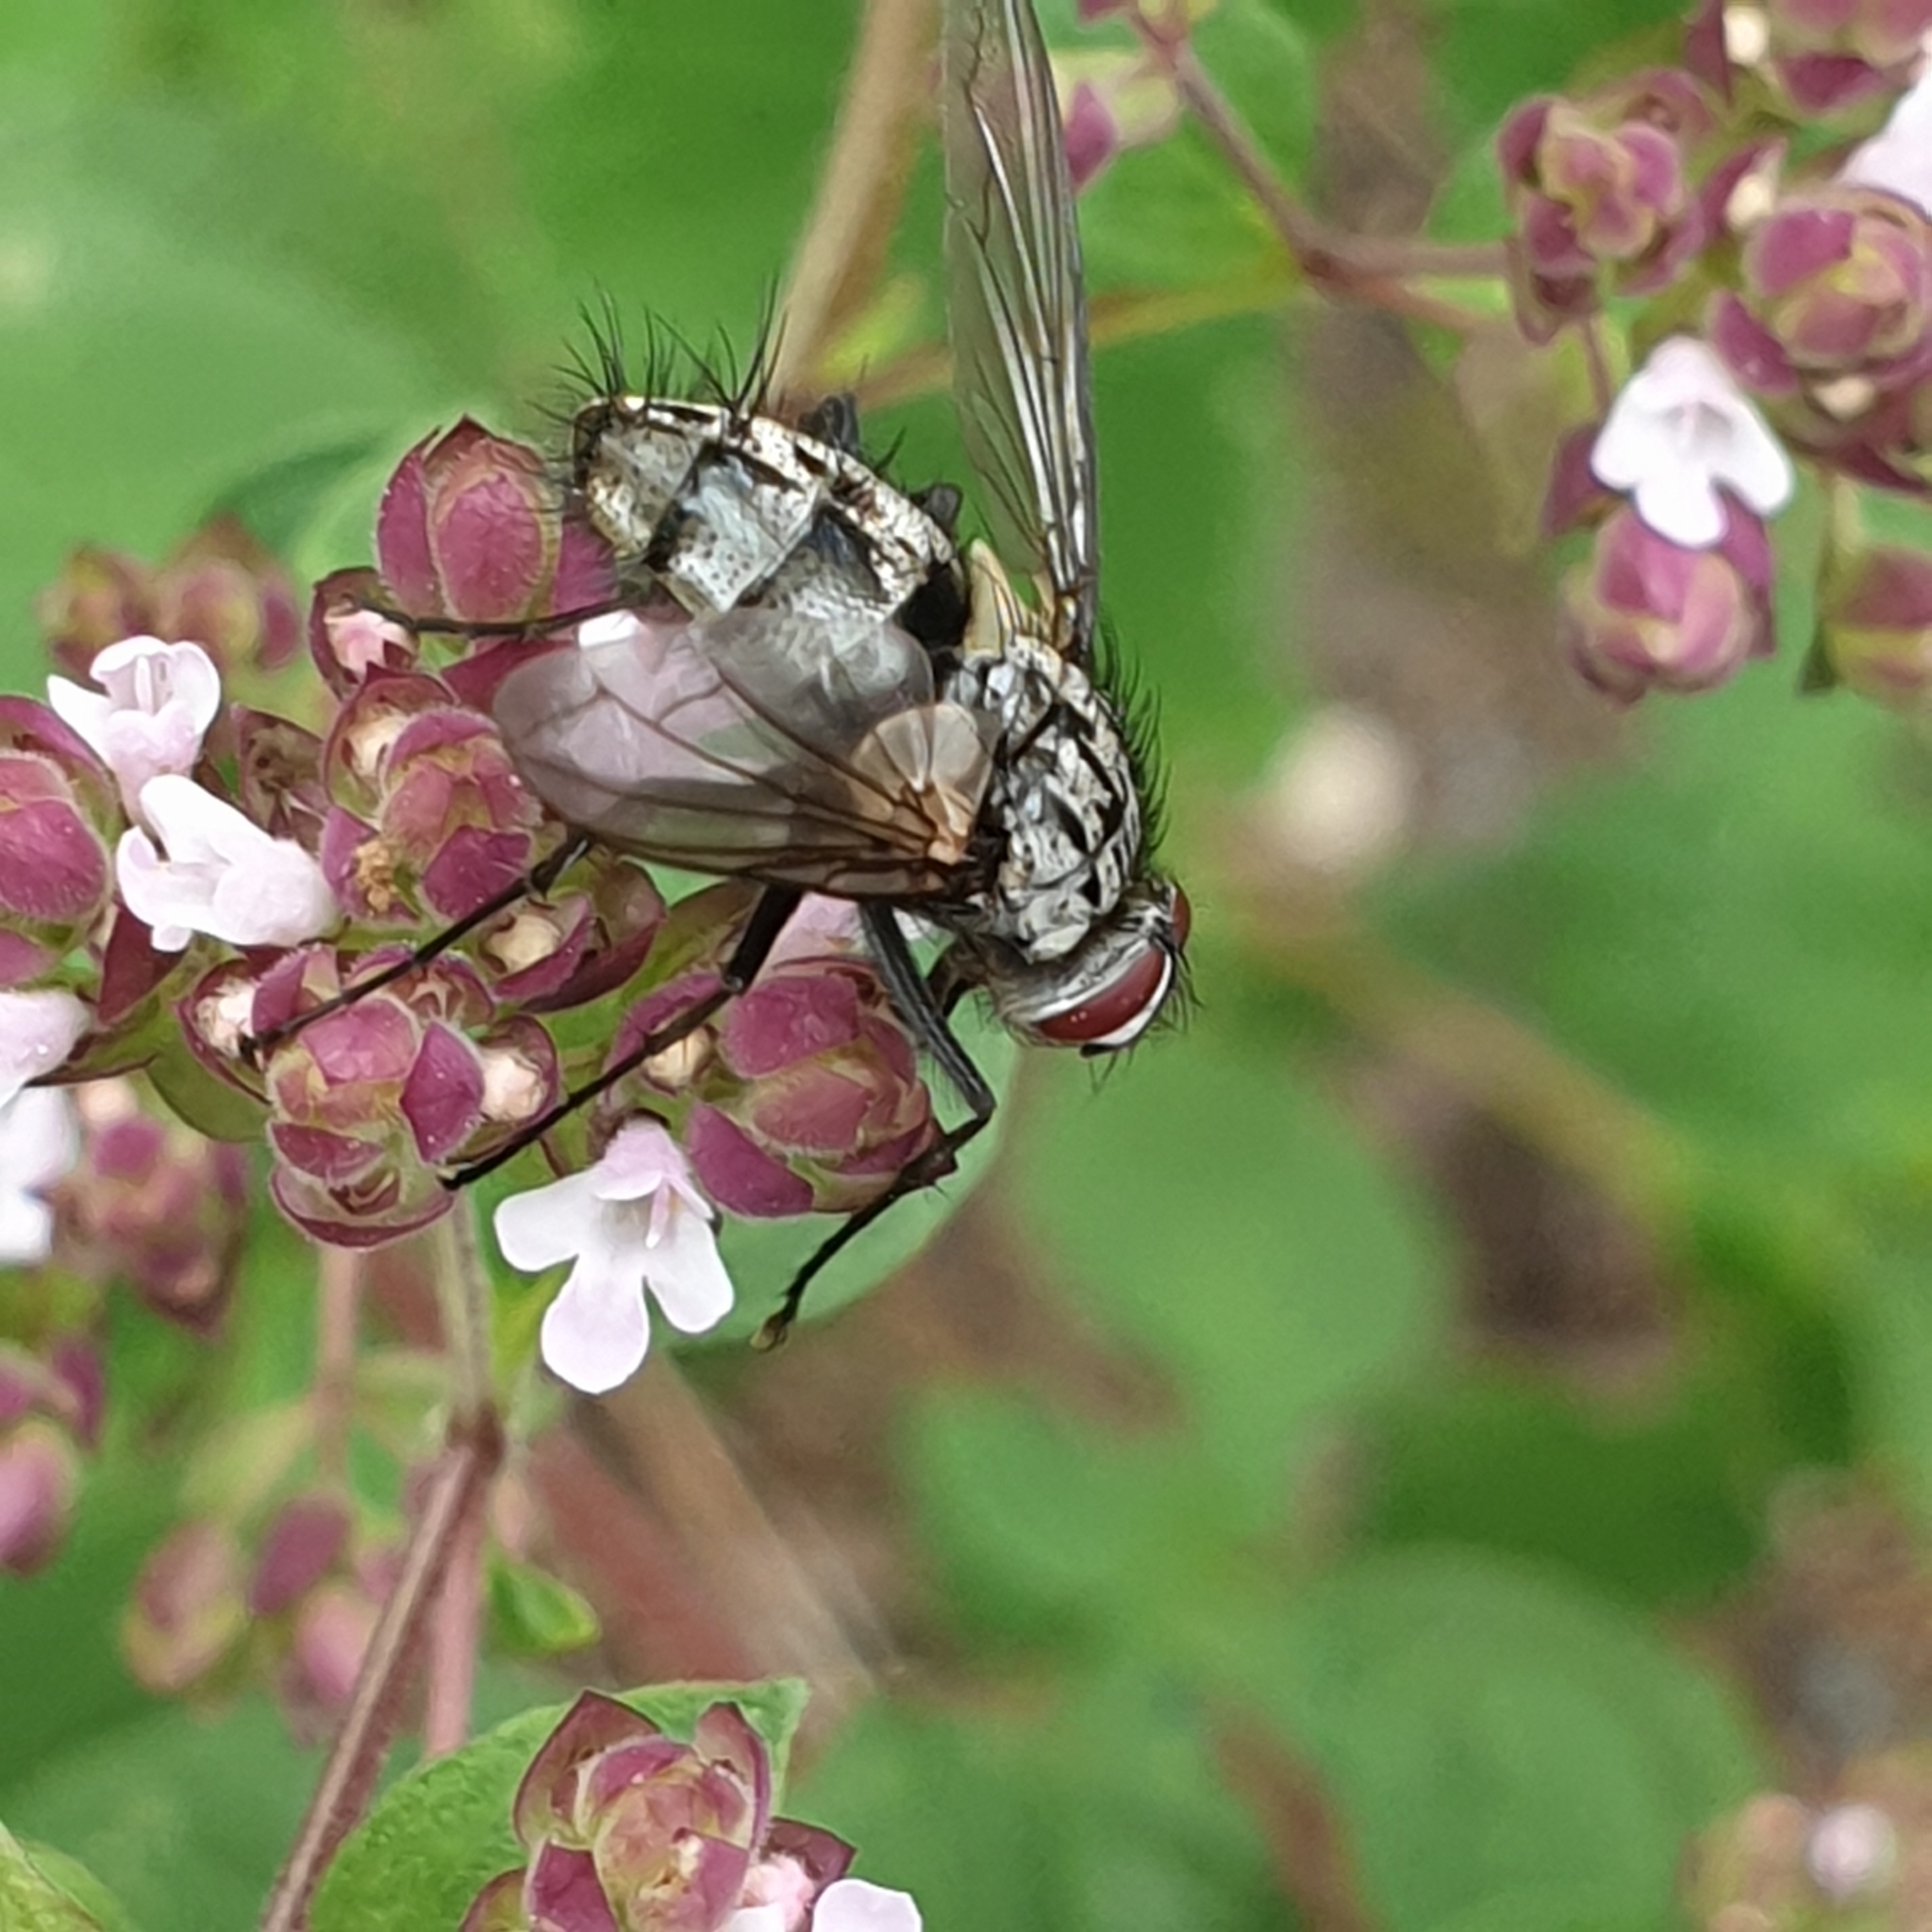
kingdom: Animalia
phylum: Arthropoda
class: Insecta
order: Diptera
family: Tachinidae
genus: Dinera
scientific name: Dinera ferina
